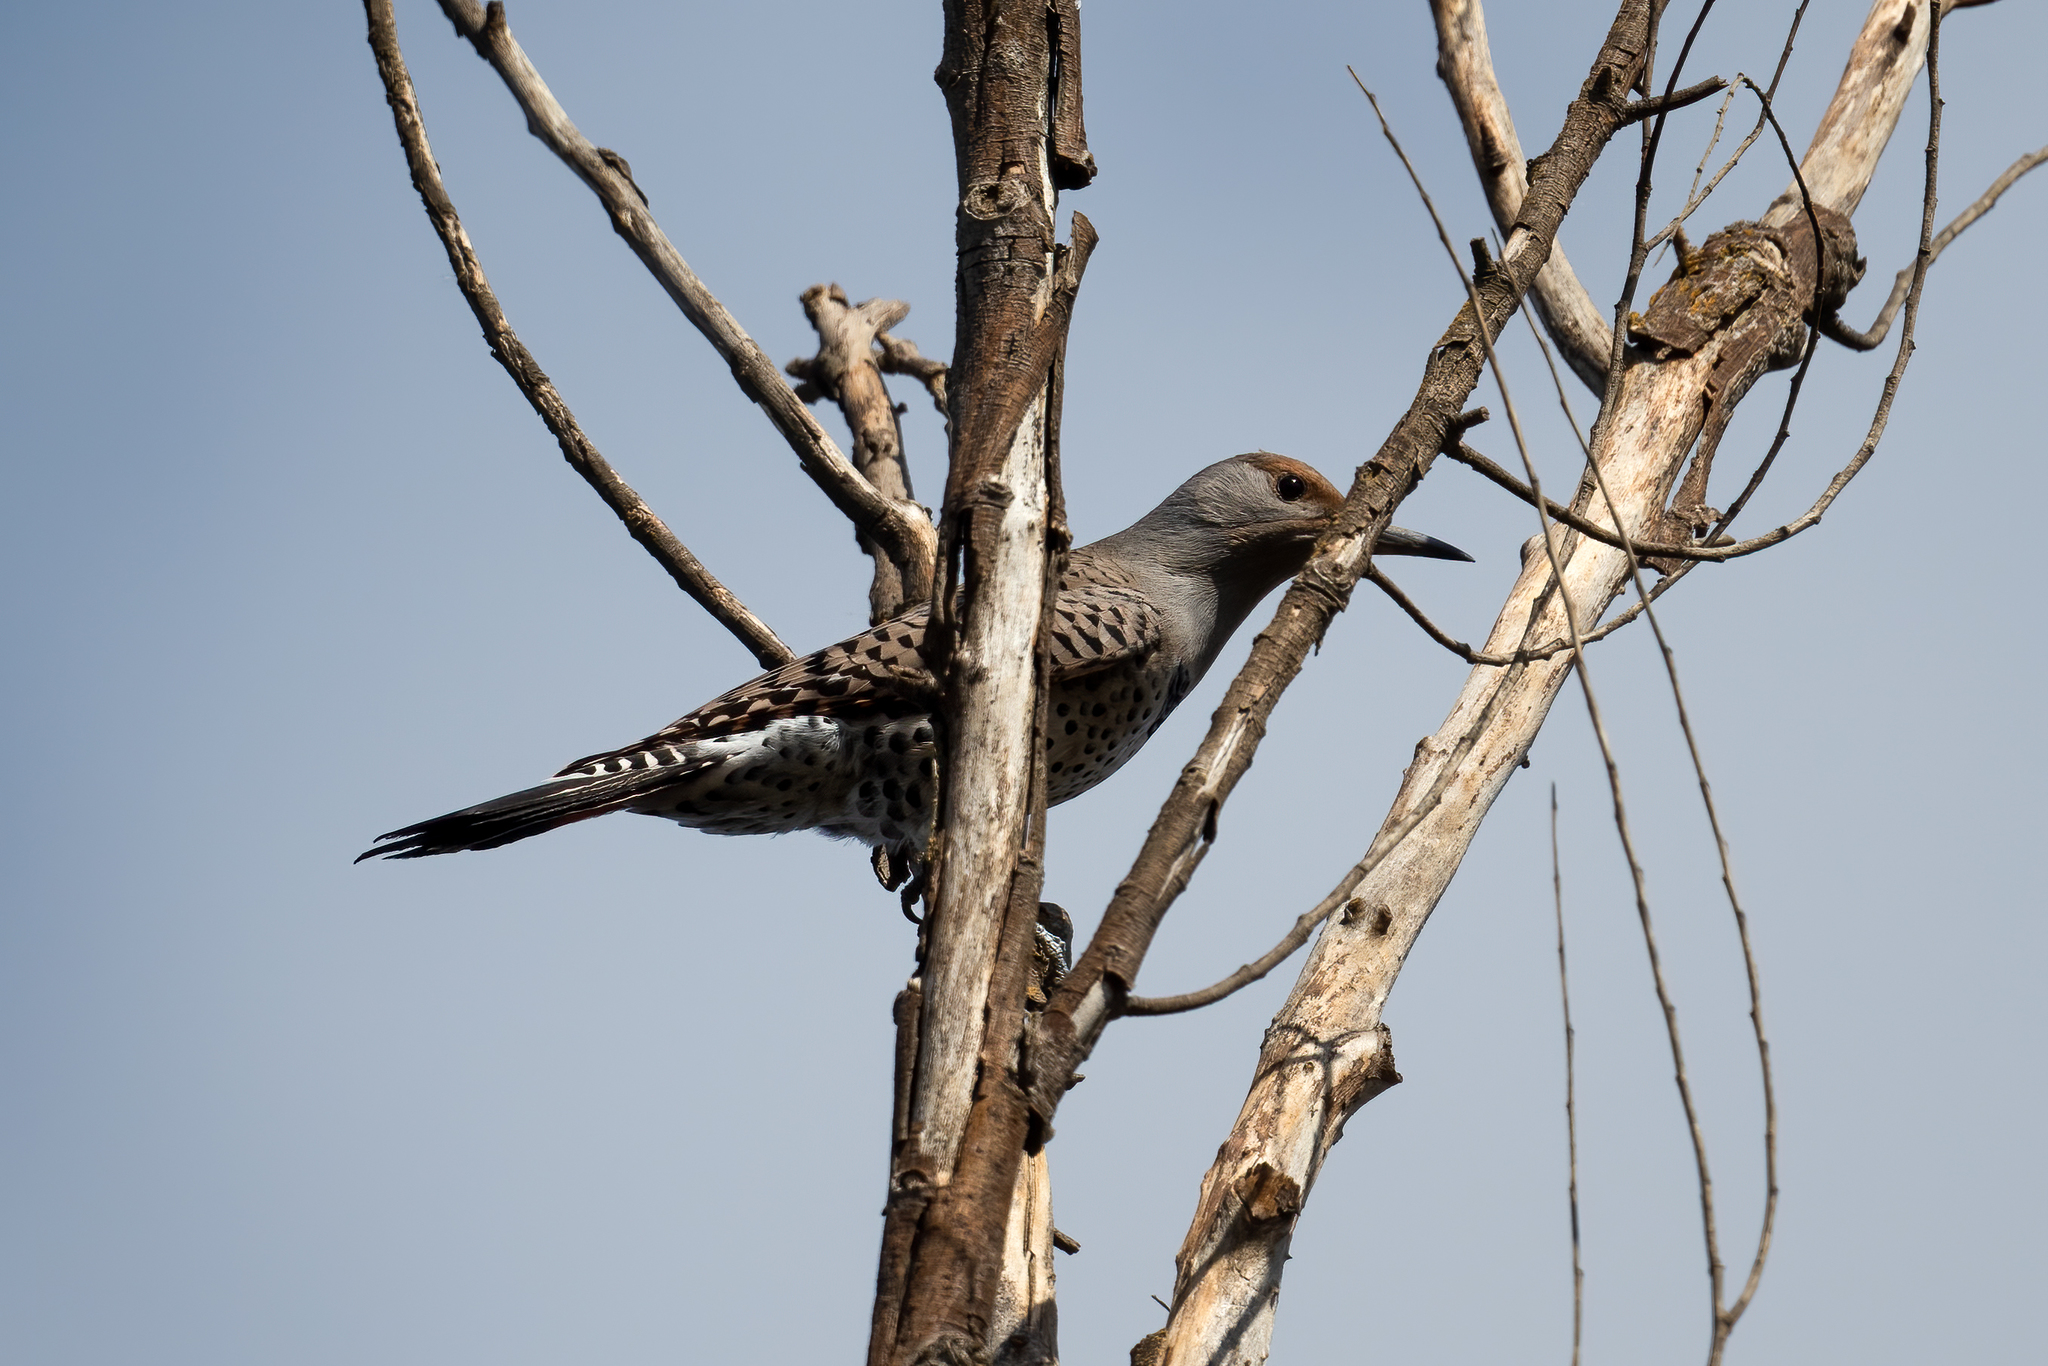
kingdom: Animalia
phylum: Chordata
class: Aves
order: Piciformes
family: Picidae
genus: Colaptes
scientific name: Colaptes auratus
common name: Northern flicker
